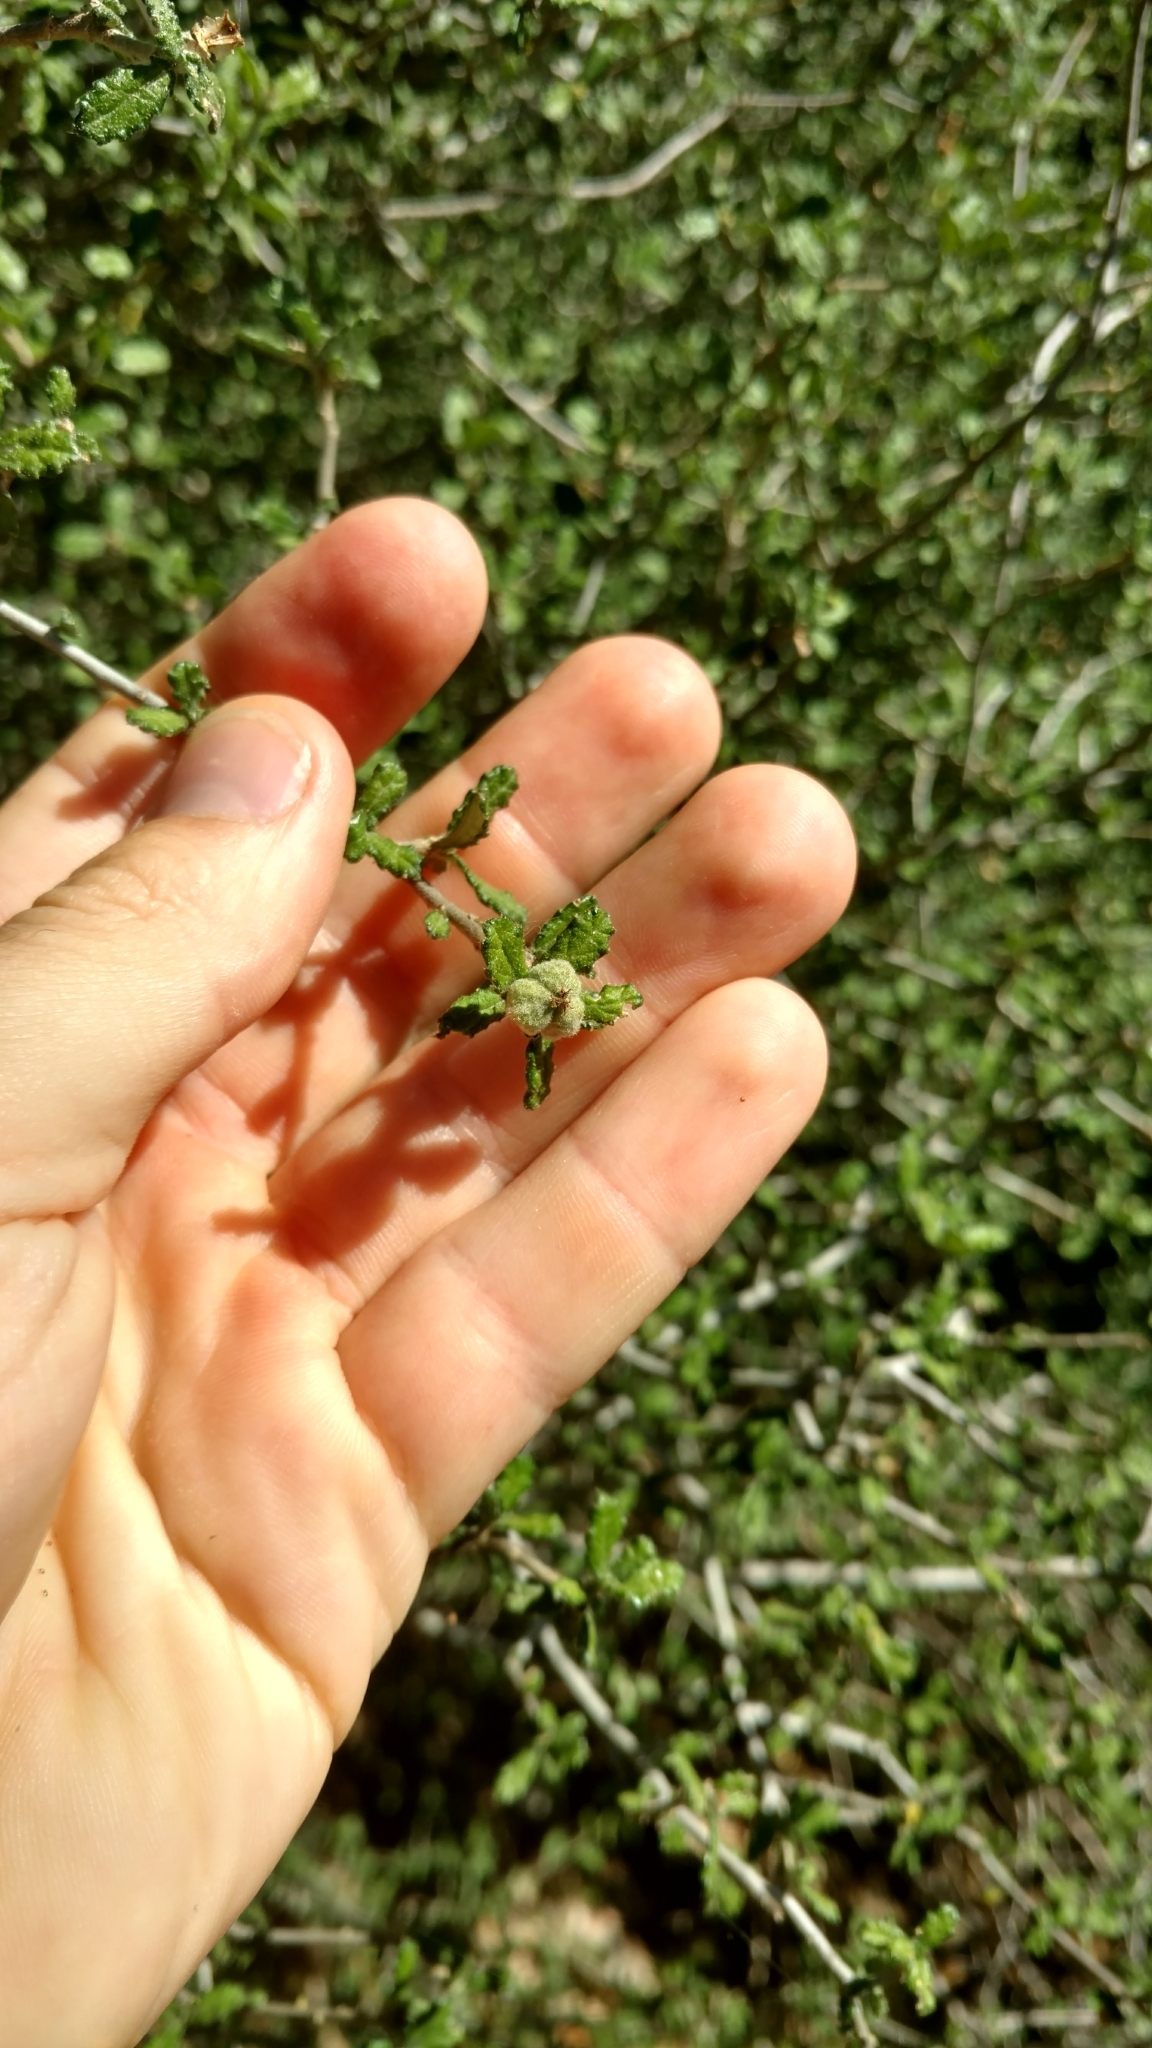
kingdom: Plantae
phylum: Tracheophyta
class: Magnoliopsida
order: Malpighiales
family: Euphorbiaceae
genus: Bernardia
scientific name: Bernardia myricifolia
